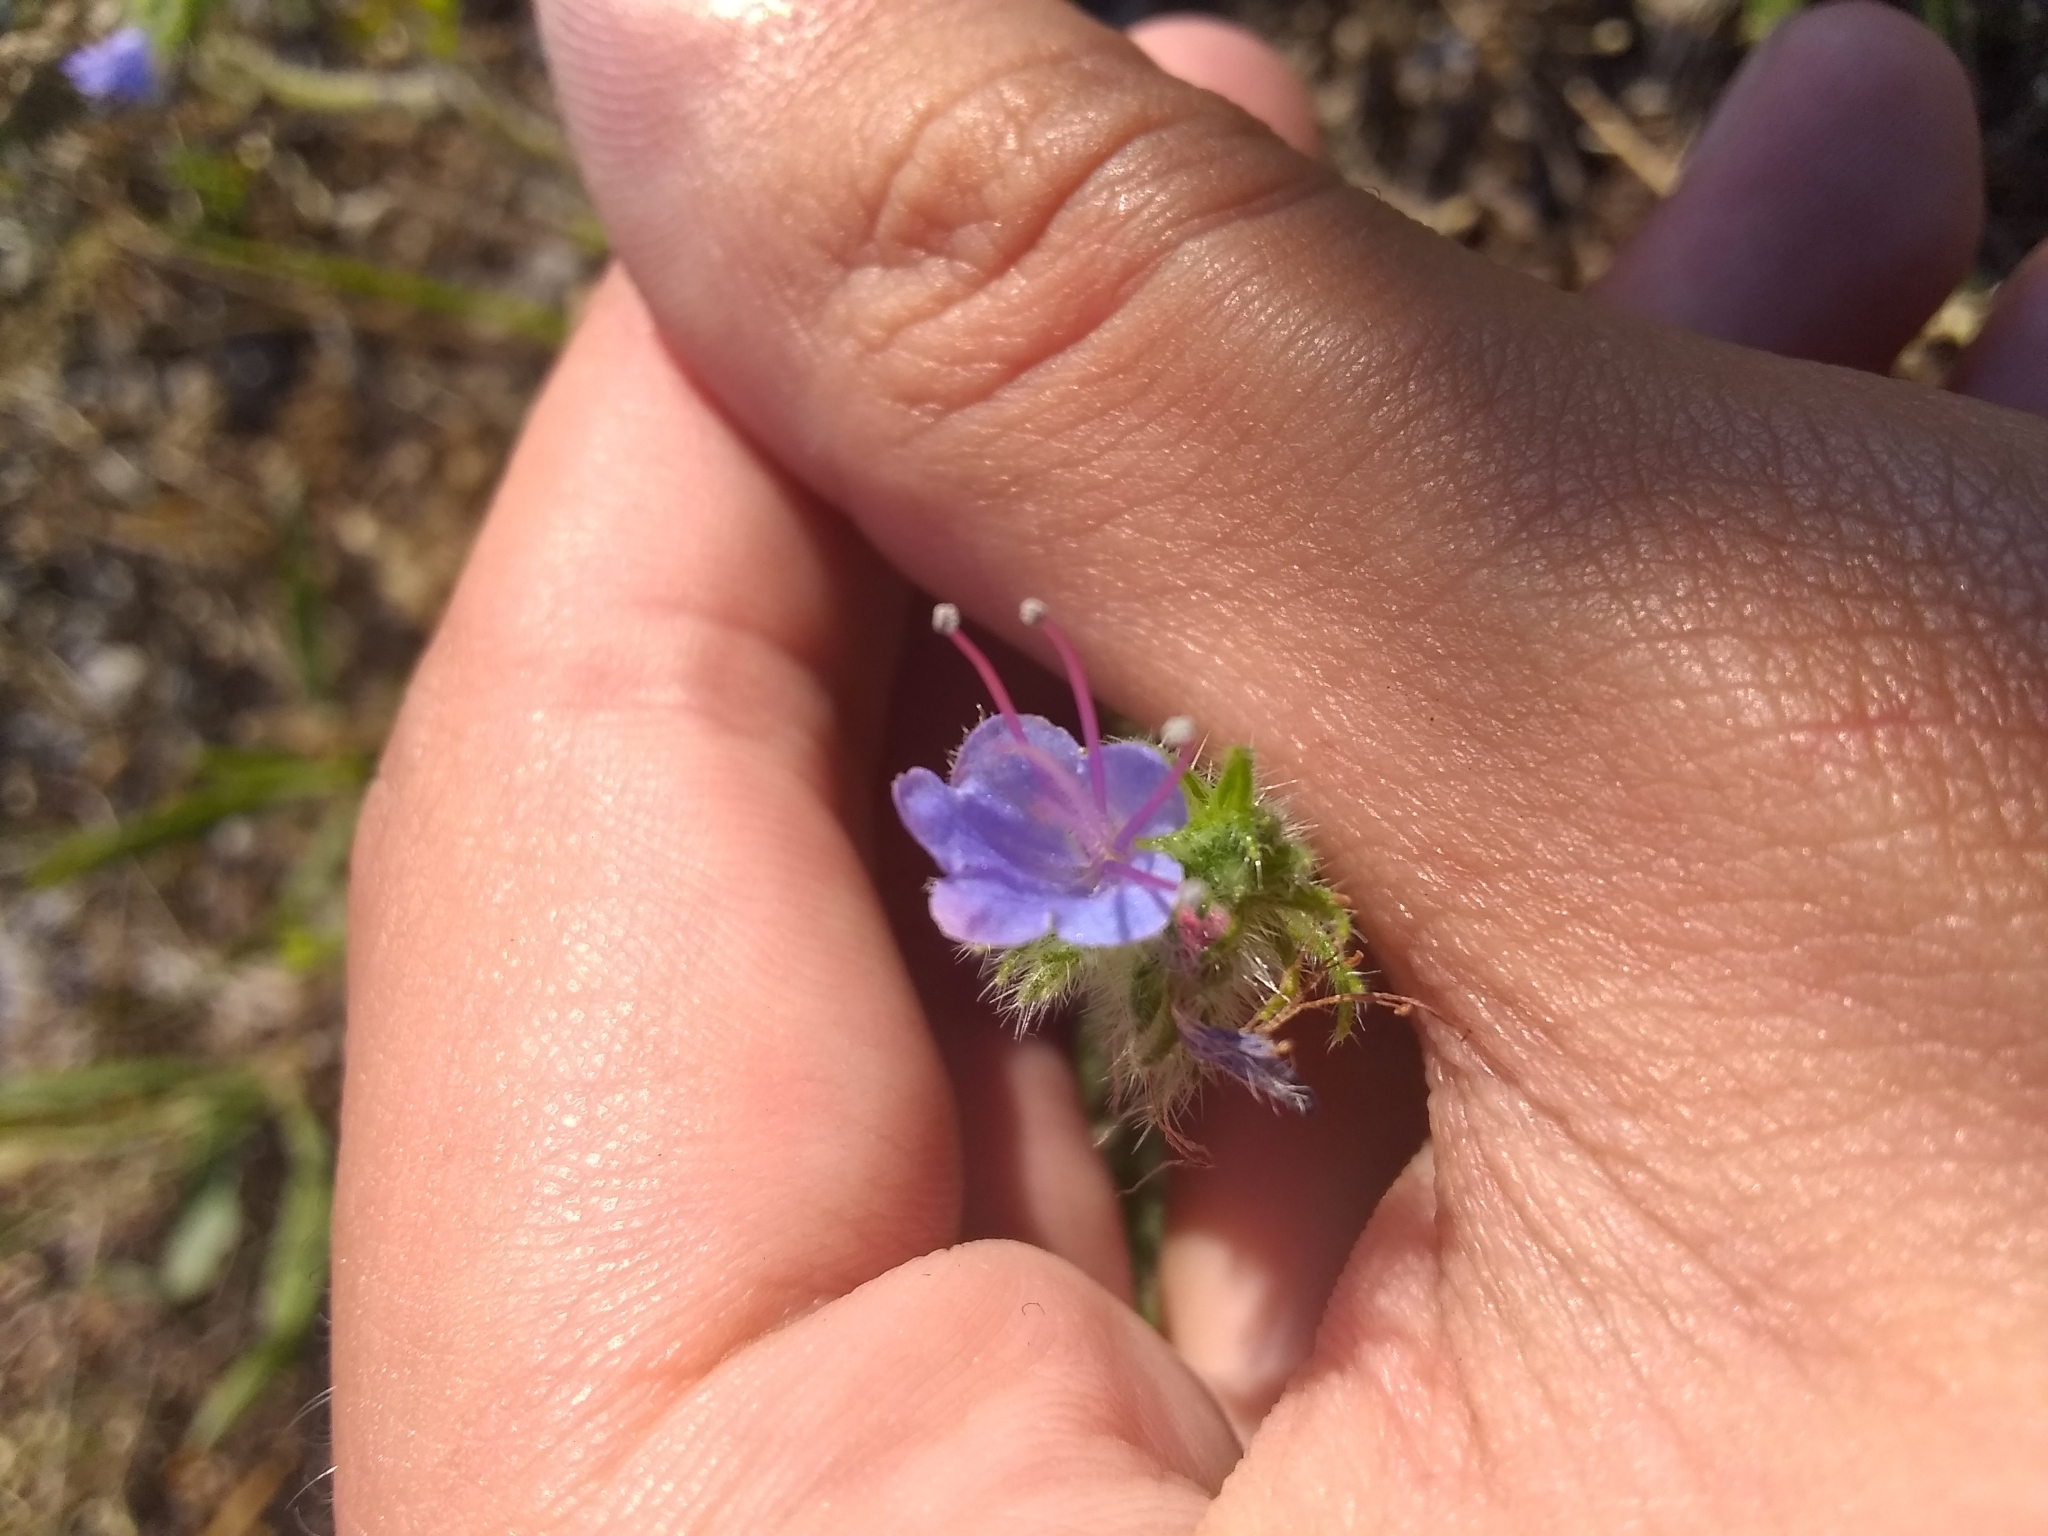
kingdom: Plantae
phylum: Tracheophyta
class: Magnoliopsida
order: Boraginales
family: Boraginaceae
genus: Echium
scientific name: Echium vulgare
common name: Common viper's bugloss
